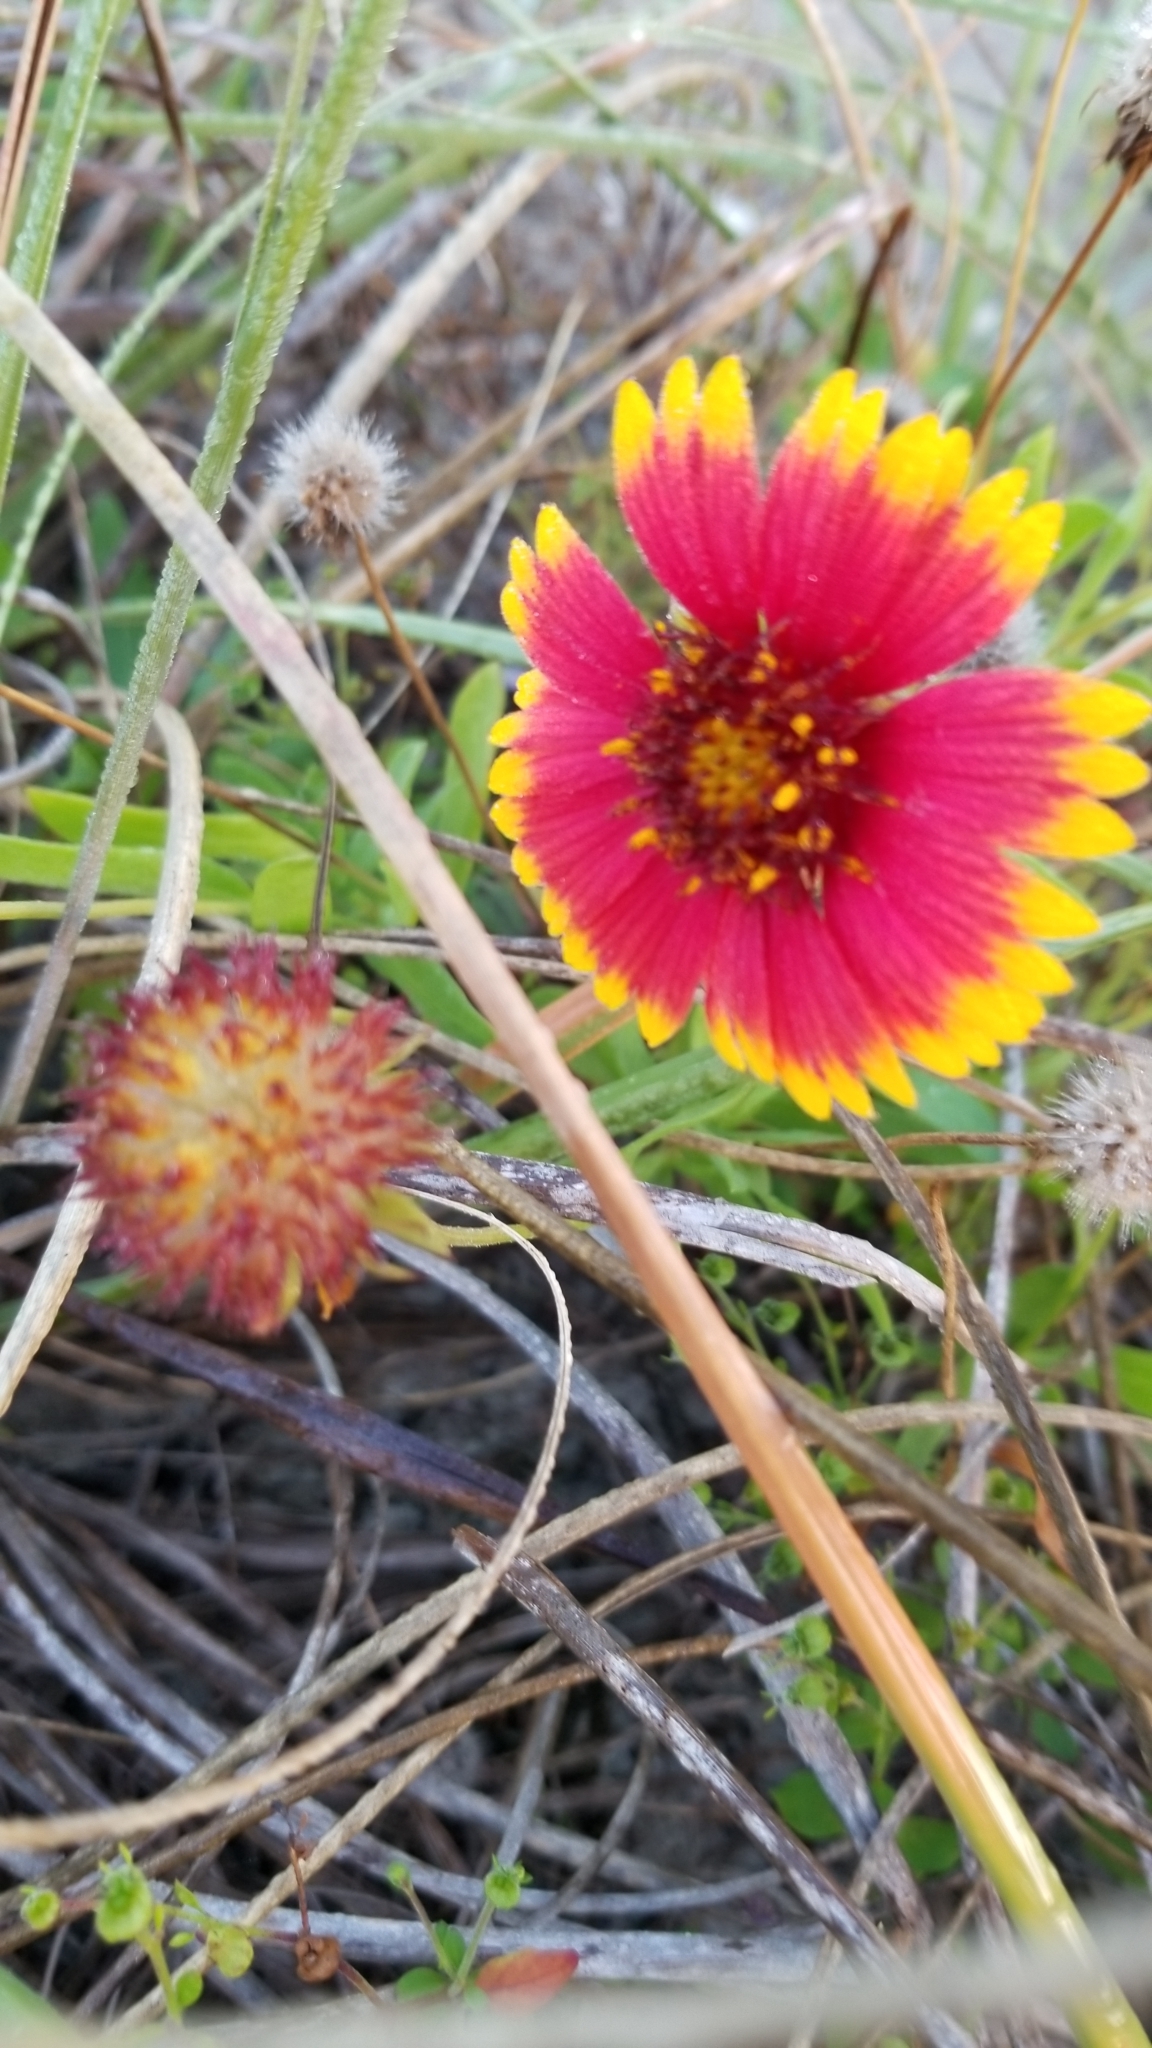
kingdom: Plantae
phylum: Tracheophyta
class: Magnoliopsida
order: Asterales
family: Asteraceae
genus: Gaillardia
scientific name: Gaillardia pulchella
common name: Firewheel
